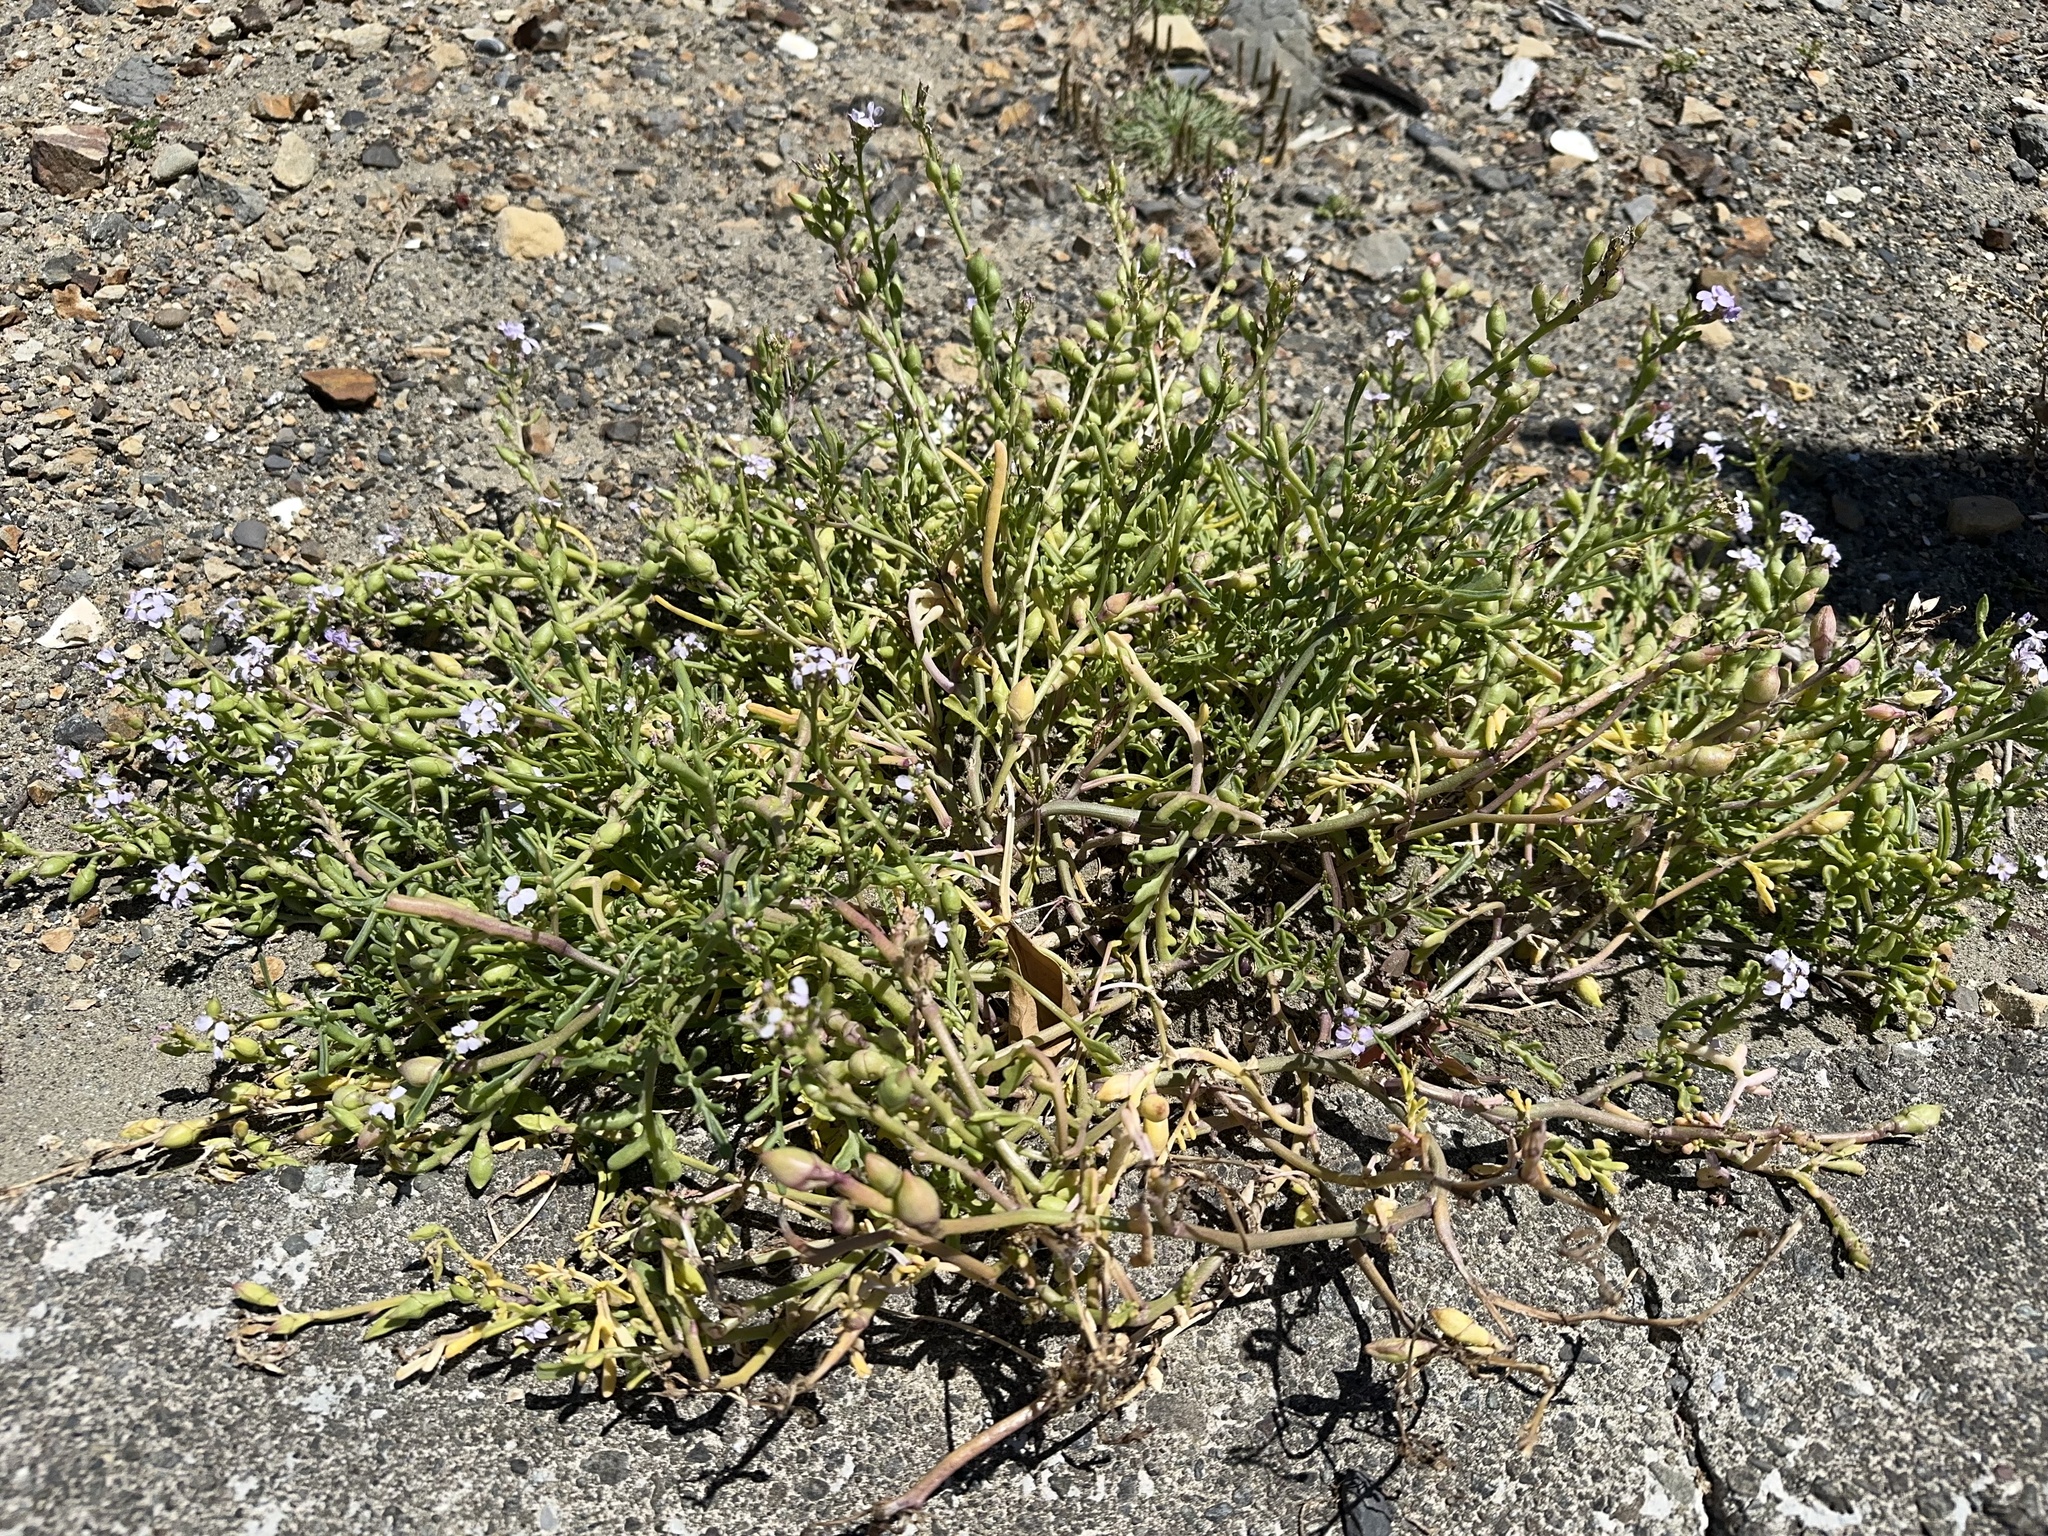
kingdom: Plantae
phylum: Tracheophyta
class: Magnoliopsida
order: Brassicales
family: Brassicaceae
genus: Cakile
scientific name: Cakile maritima
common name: Sea rocket
